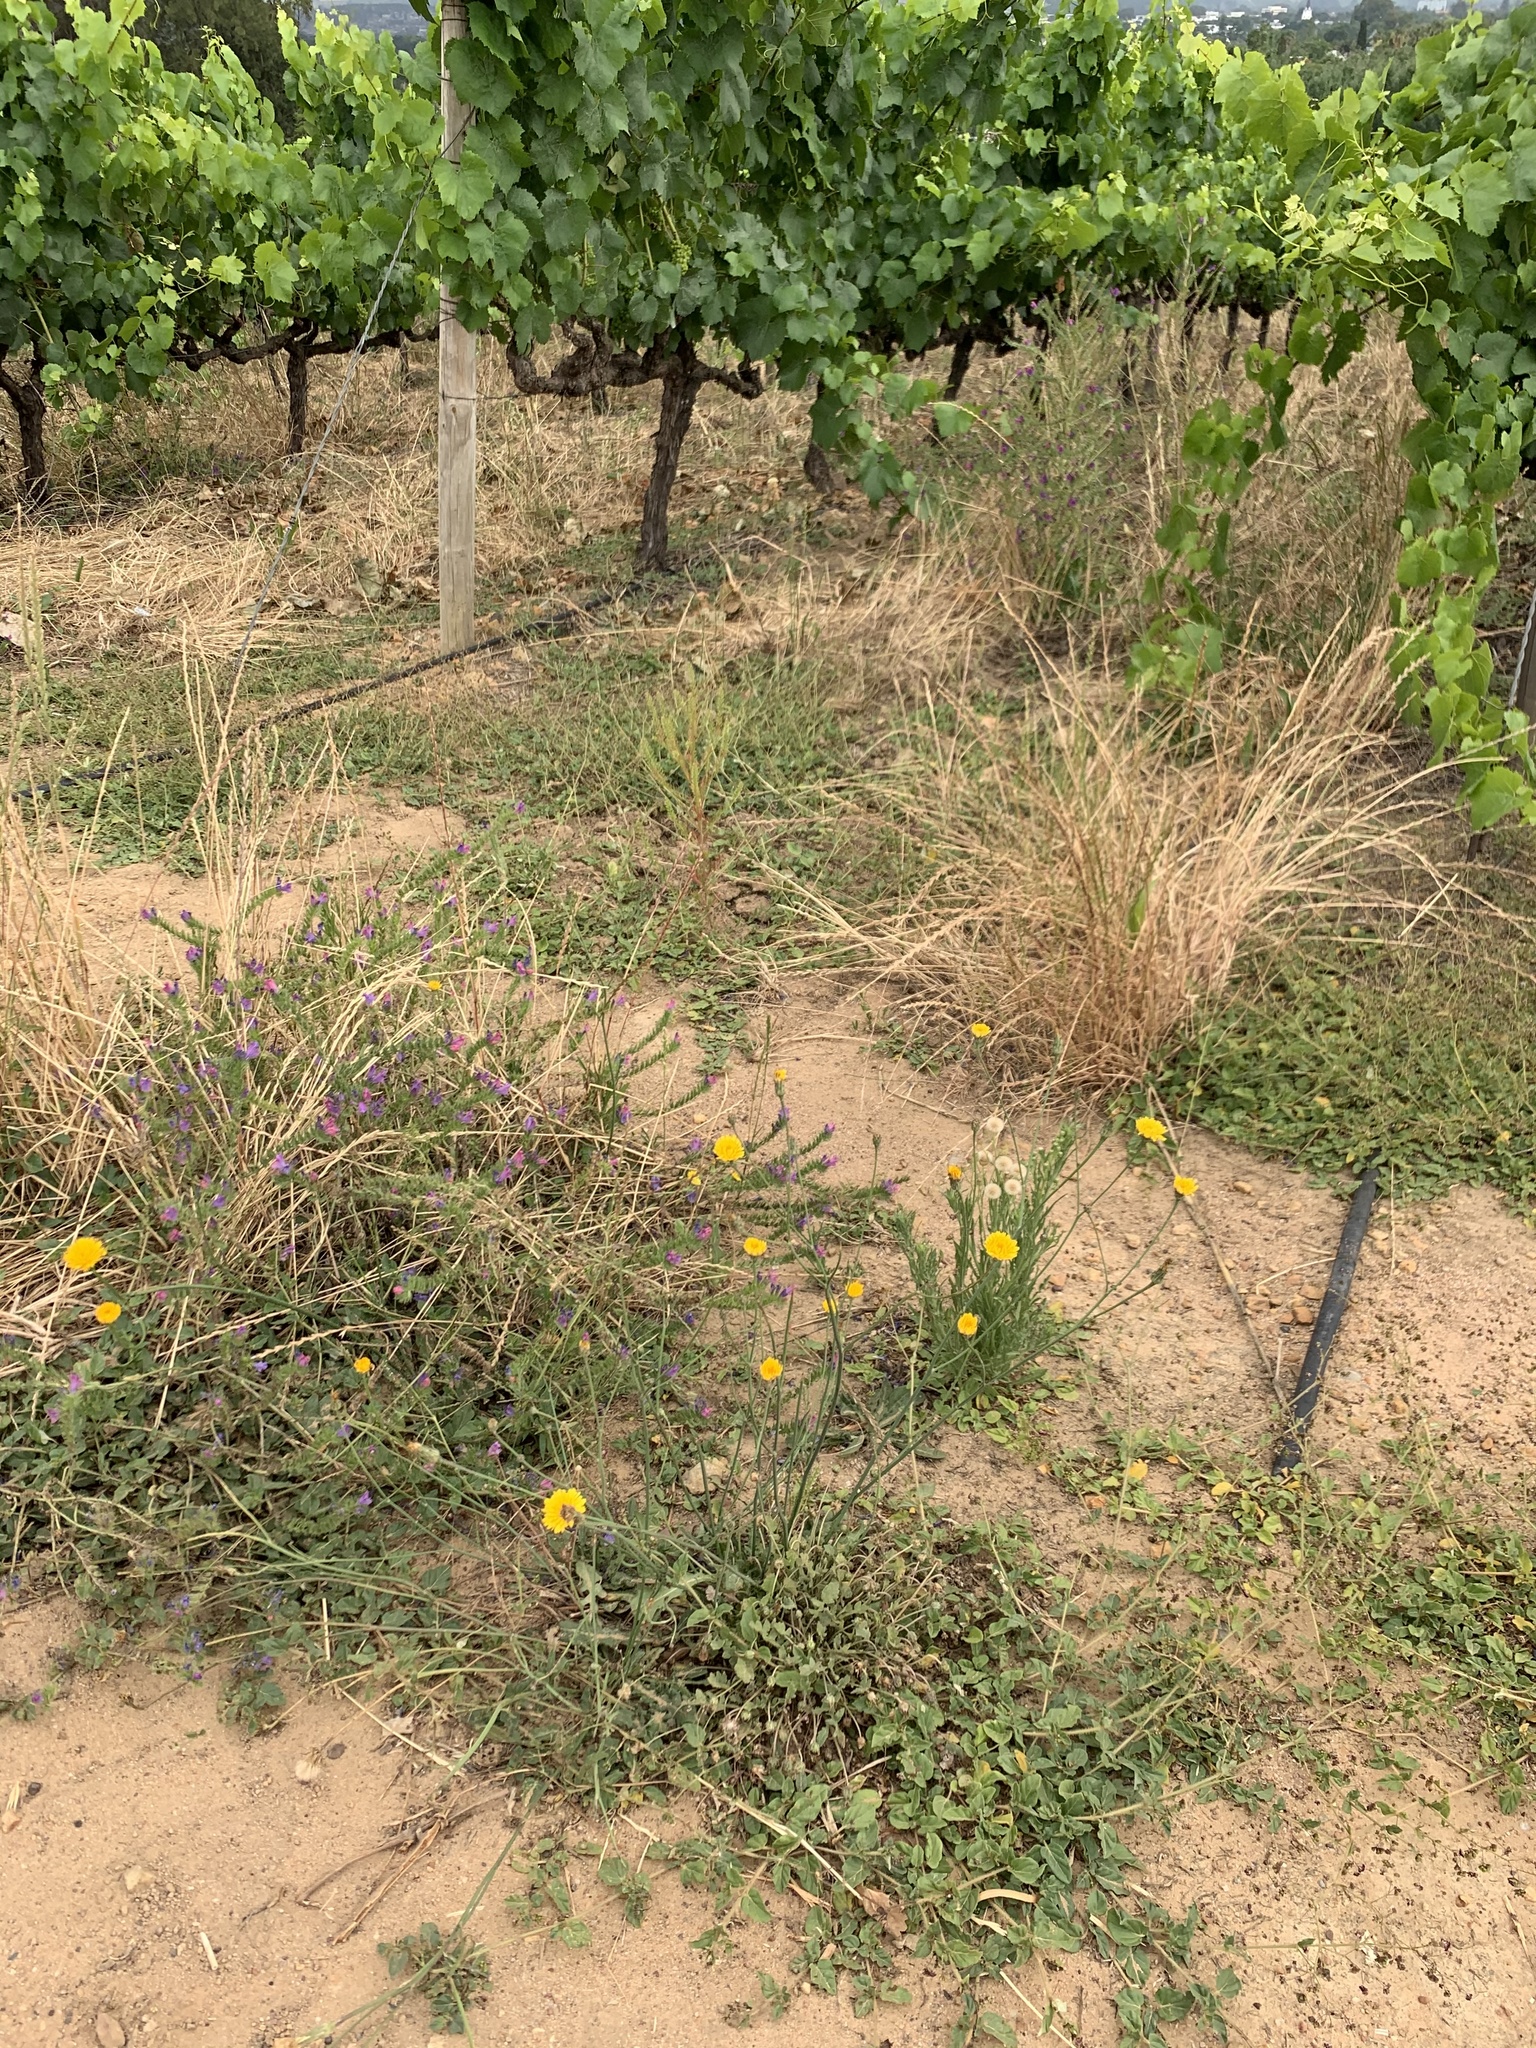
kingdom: Plantae
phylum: Tracheophyta
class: Magnoliopsida
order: Asterales
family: Asteraceae
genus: Hypochaeris
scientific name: Hypochaeris radicata
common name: Flatweed
